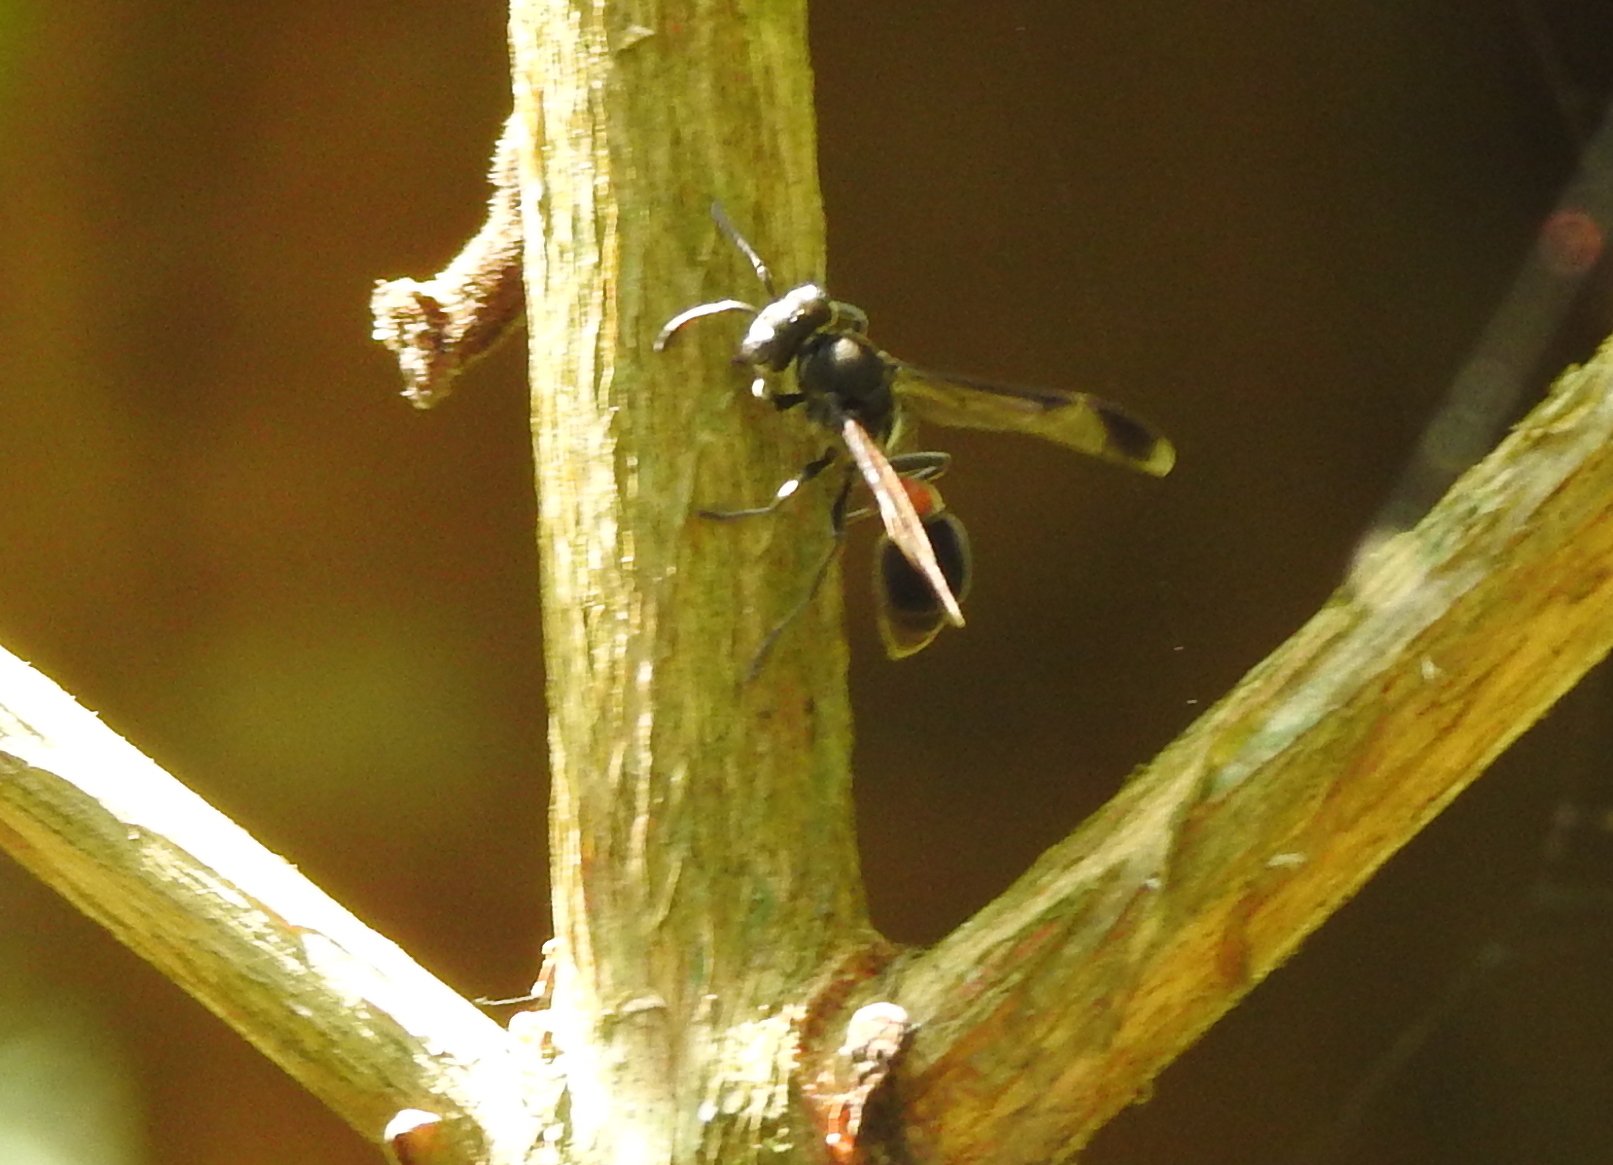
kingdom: Animalia
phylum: Arthropoda
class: Insecta
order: Hymenoptera
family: Vespidae
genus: Ropalidia
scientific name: Ropalidia sumatrae
